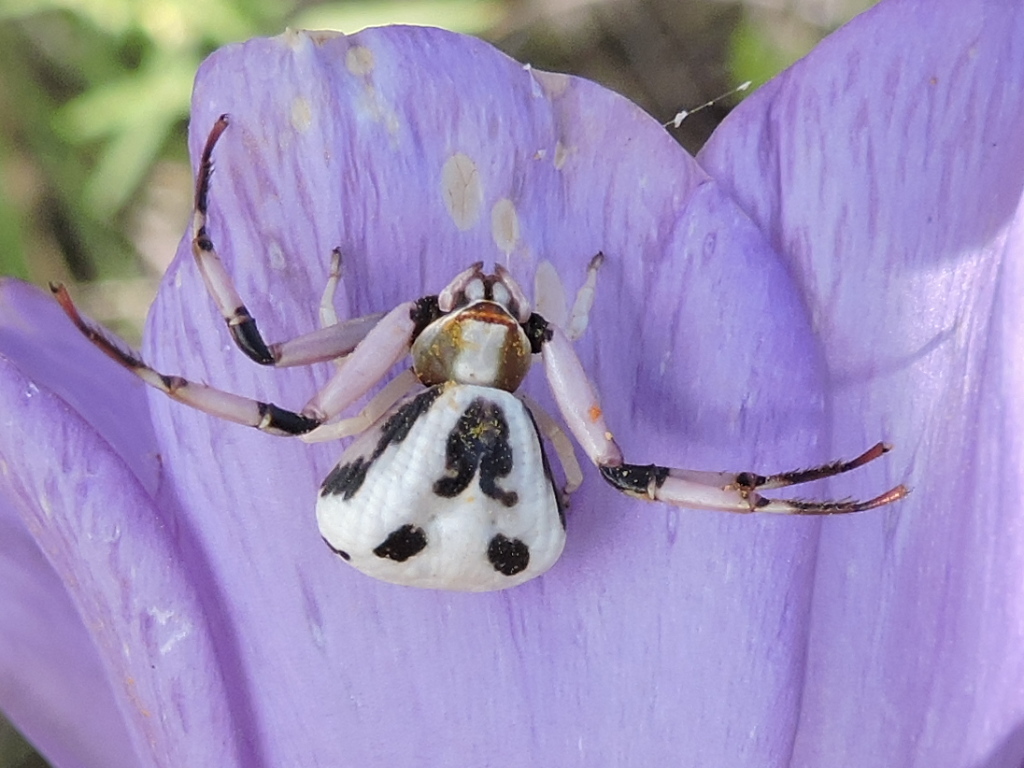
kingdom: Animalia
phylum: Arthropoda
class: Arachnida
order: Araneae
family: Thomisidae
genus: Misumenoides
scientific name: Misumenoides formosipes
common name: White-banded crab spider
